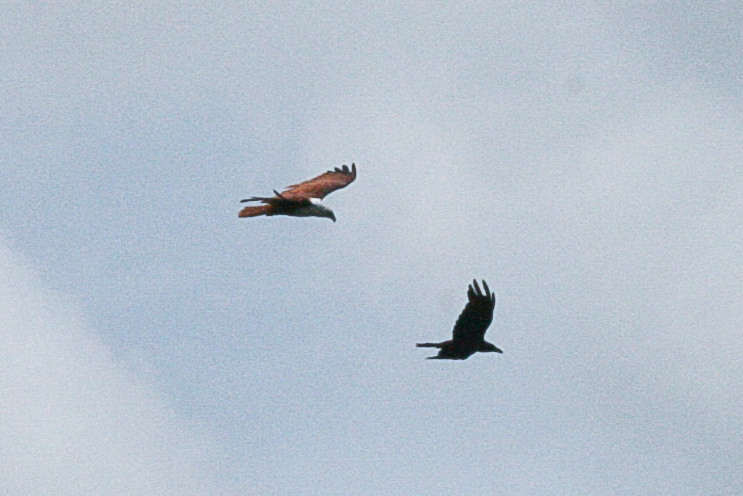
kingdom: Animalia
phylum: Chordata
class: Aves
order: Accipitriformes
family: Accipitridae
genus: Haliastur
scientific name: Haliastur indus
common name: Brahminy kite
